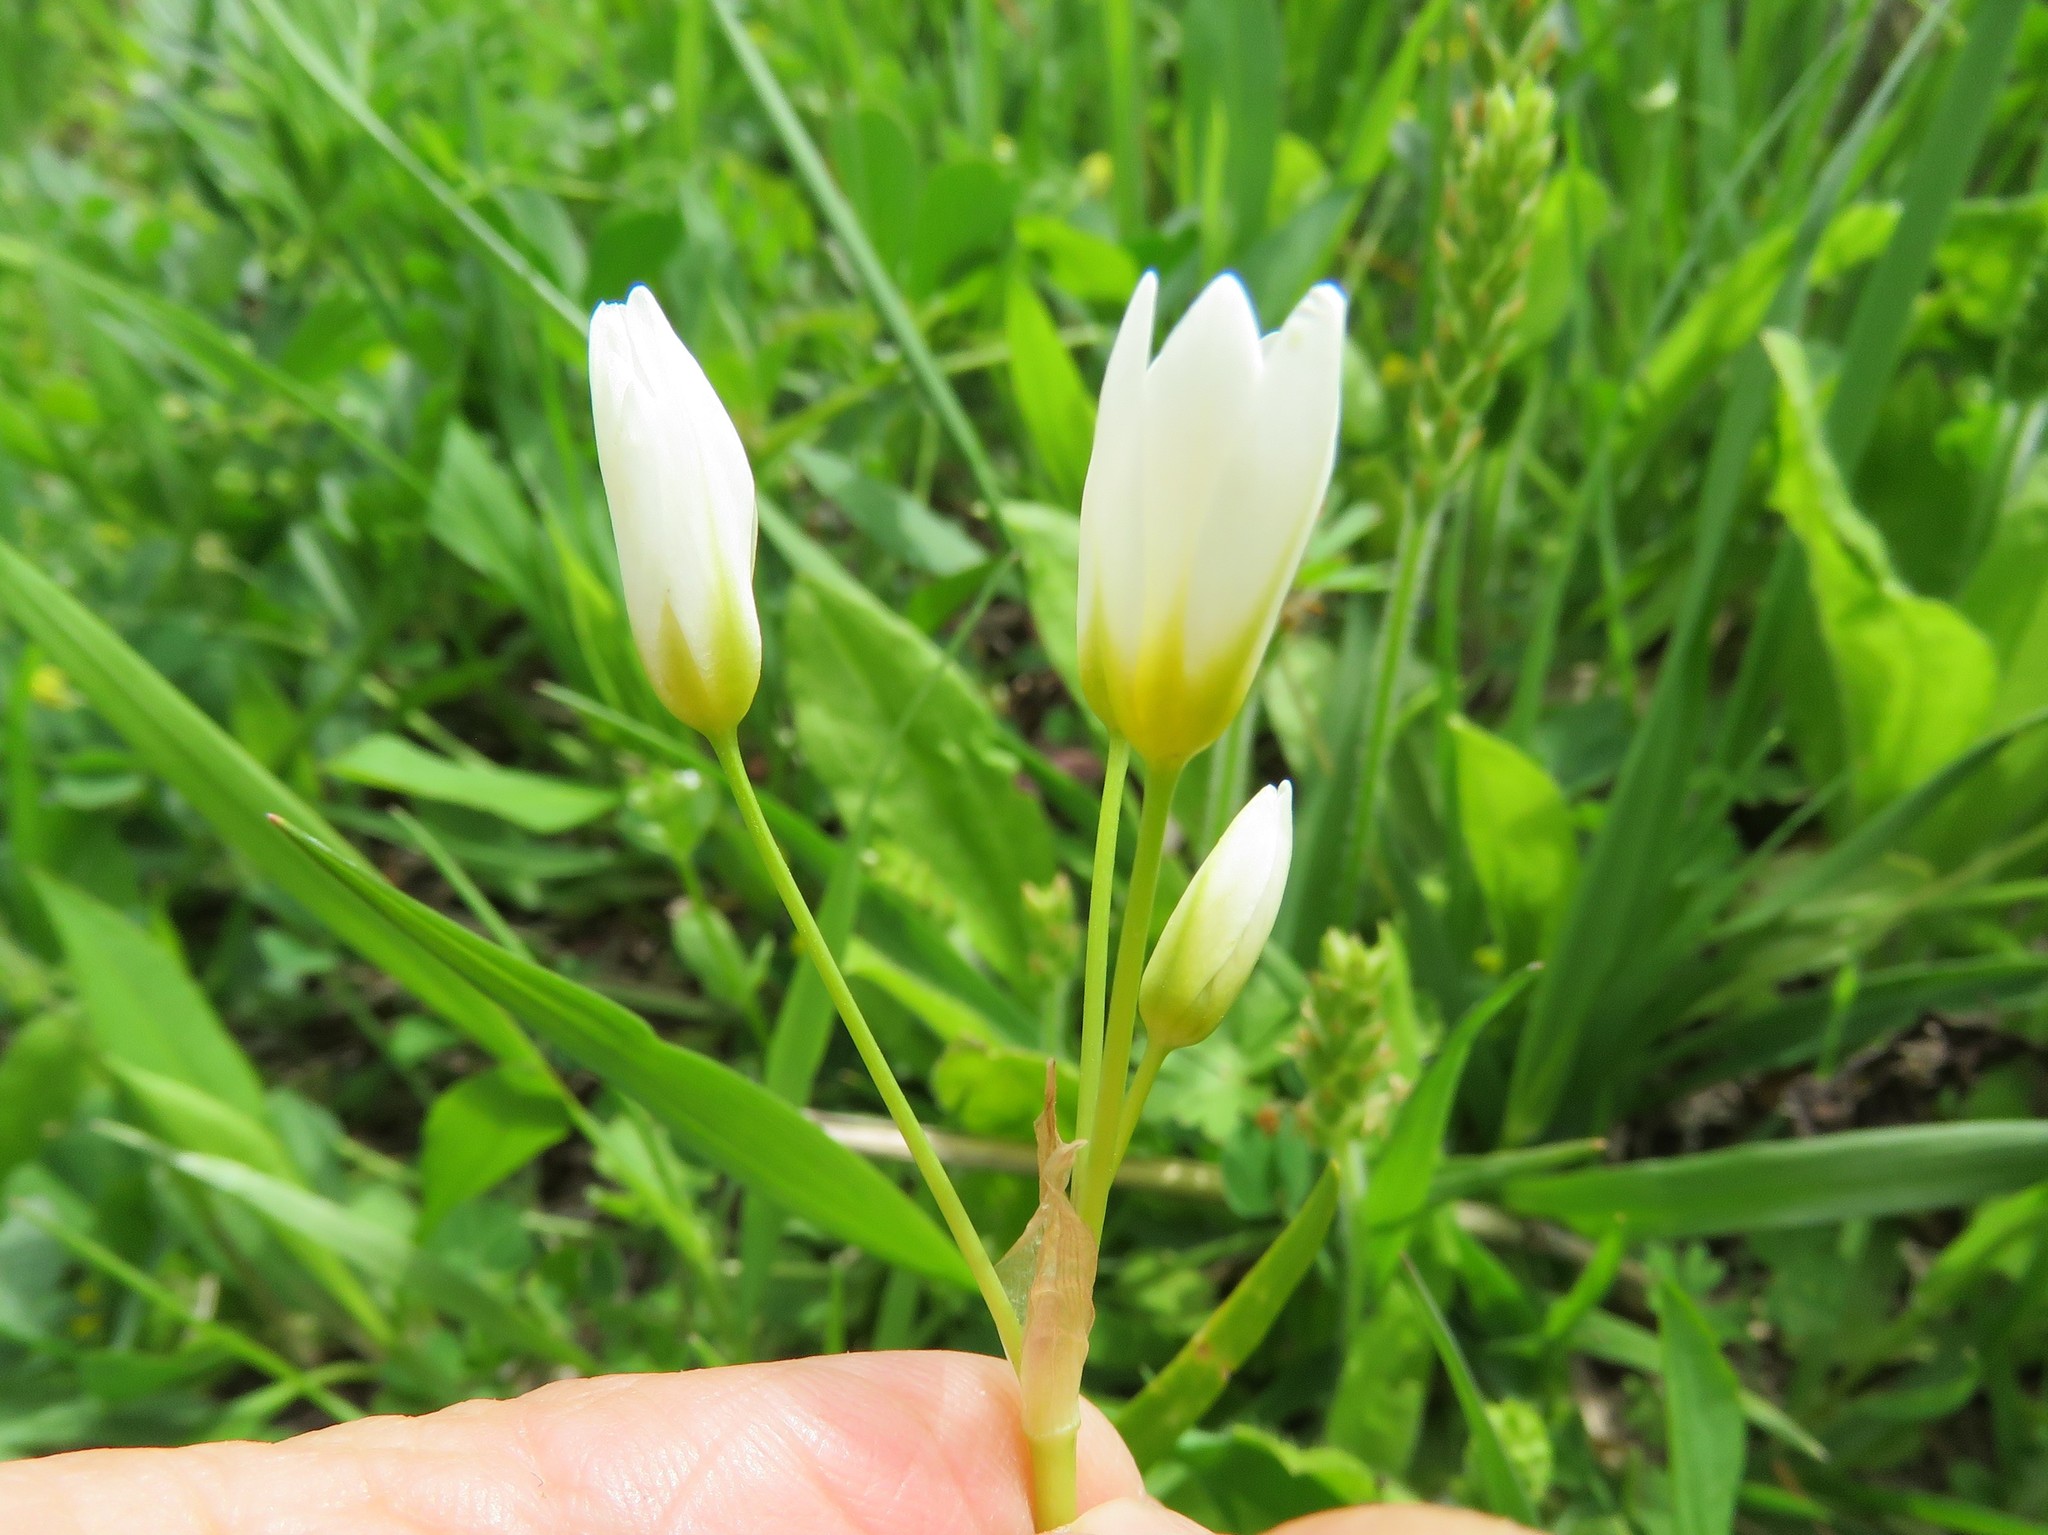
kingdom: Plantae
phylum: Tracheophyta
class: Liliopsida
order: Asparagales
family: Amaryllidaceae
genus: Nothoscordum
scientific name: Nothoscordum bivalve
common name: Crow-poison
